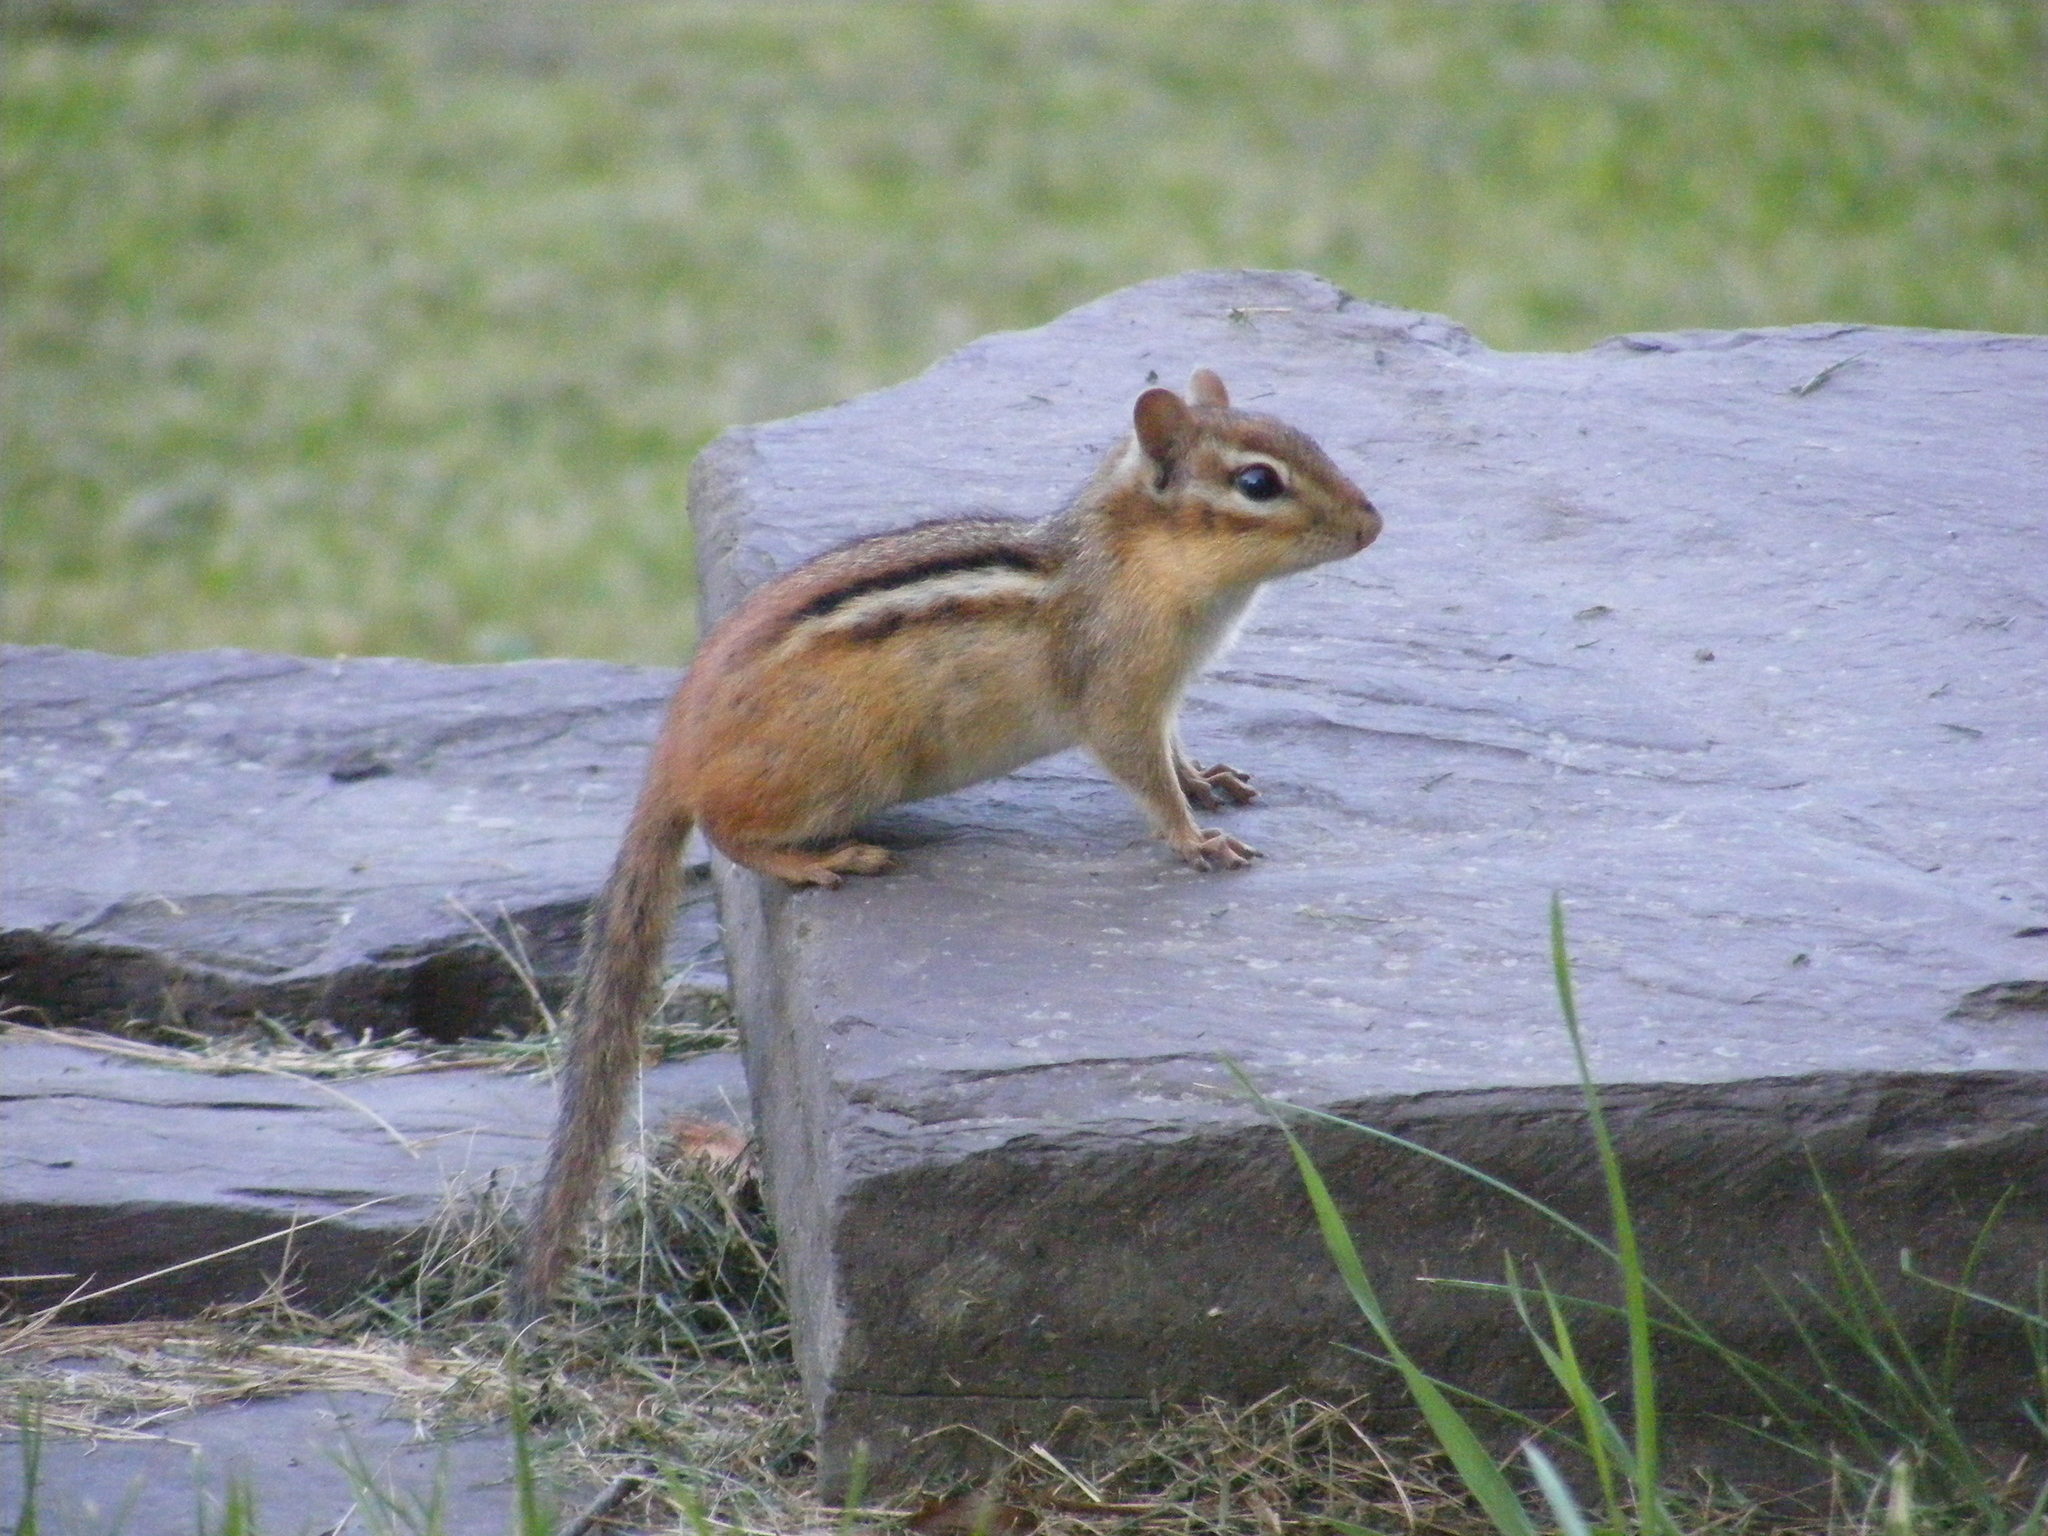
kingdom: Animalia
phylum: Chordata
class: Mammalia
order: Rodentia
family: Sciuridae
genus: Tamias
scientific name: Tamias striatus
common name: Eastern chipmunk
